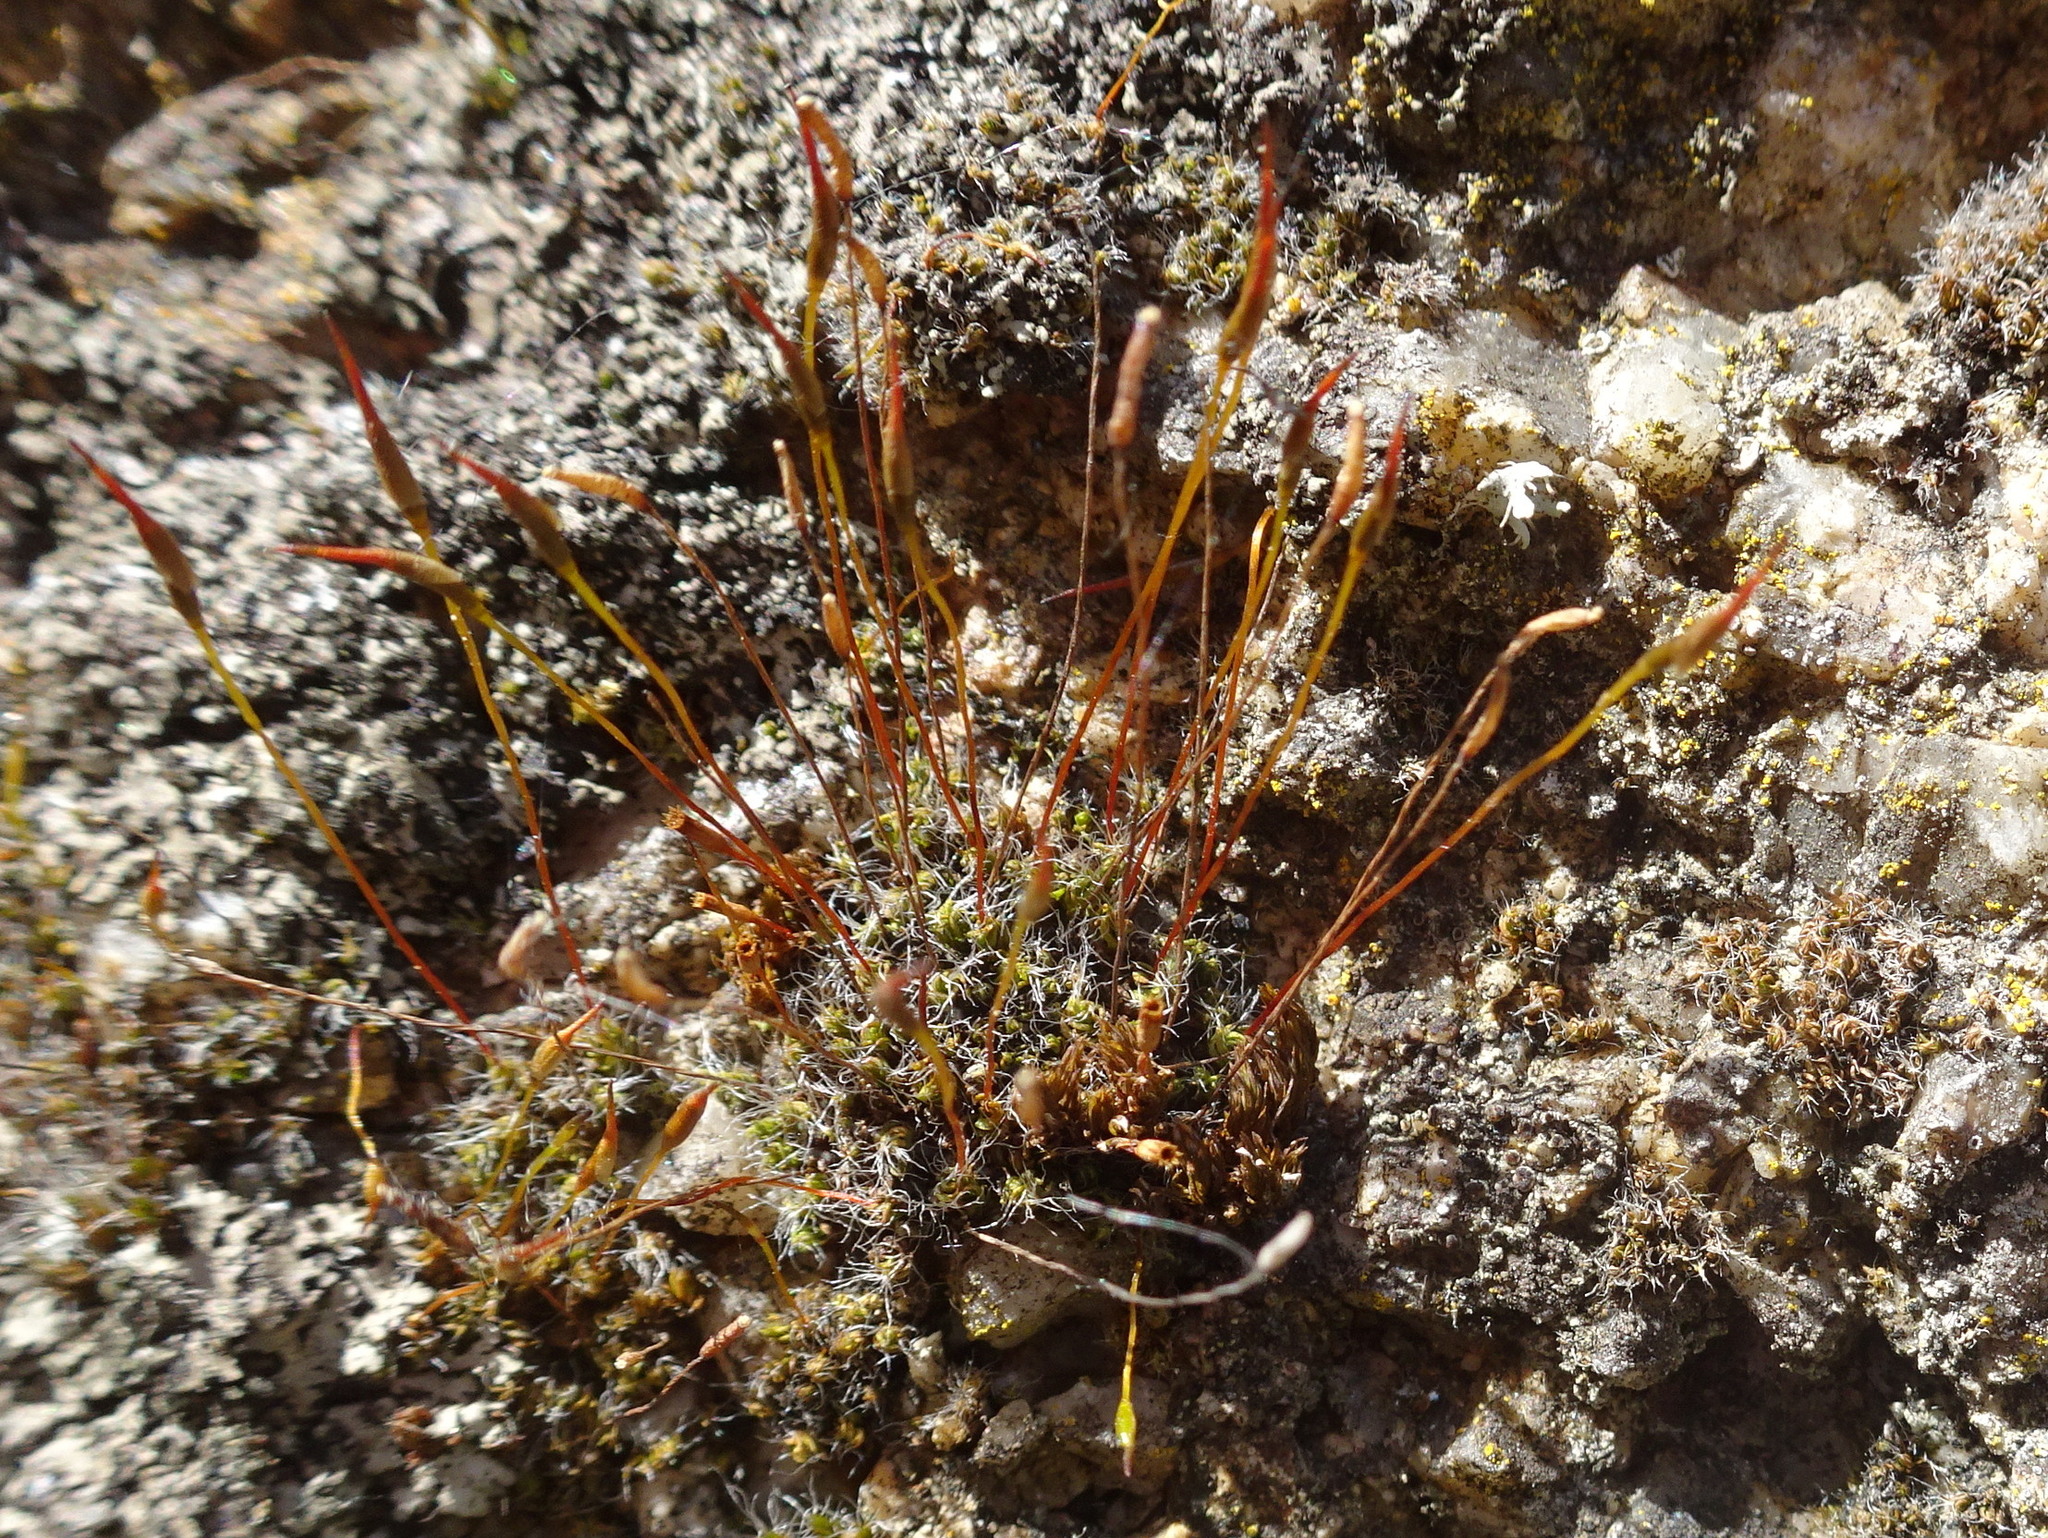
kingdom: Plantae
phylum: Bryophyta
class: Bryopsida
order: Pottiales
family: Pottiaceae
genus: Tortula
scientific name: Tortula muralis
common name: Wall screw-moss
